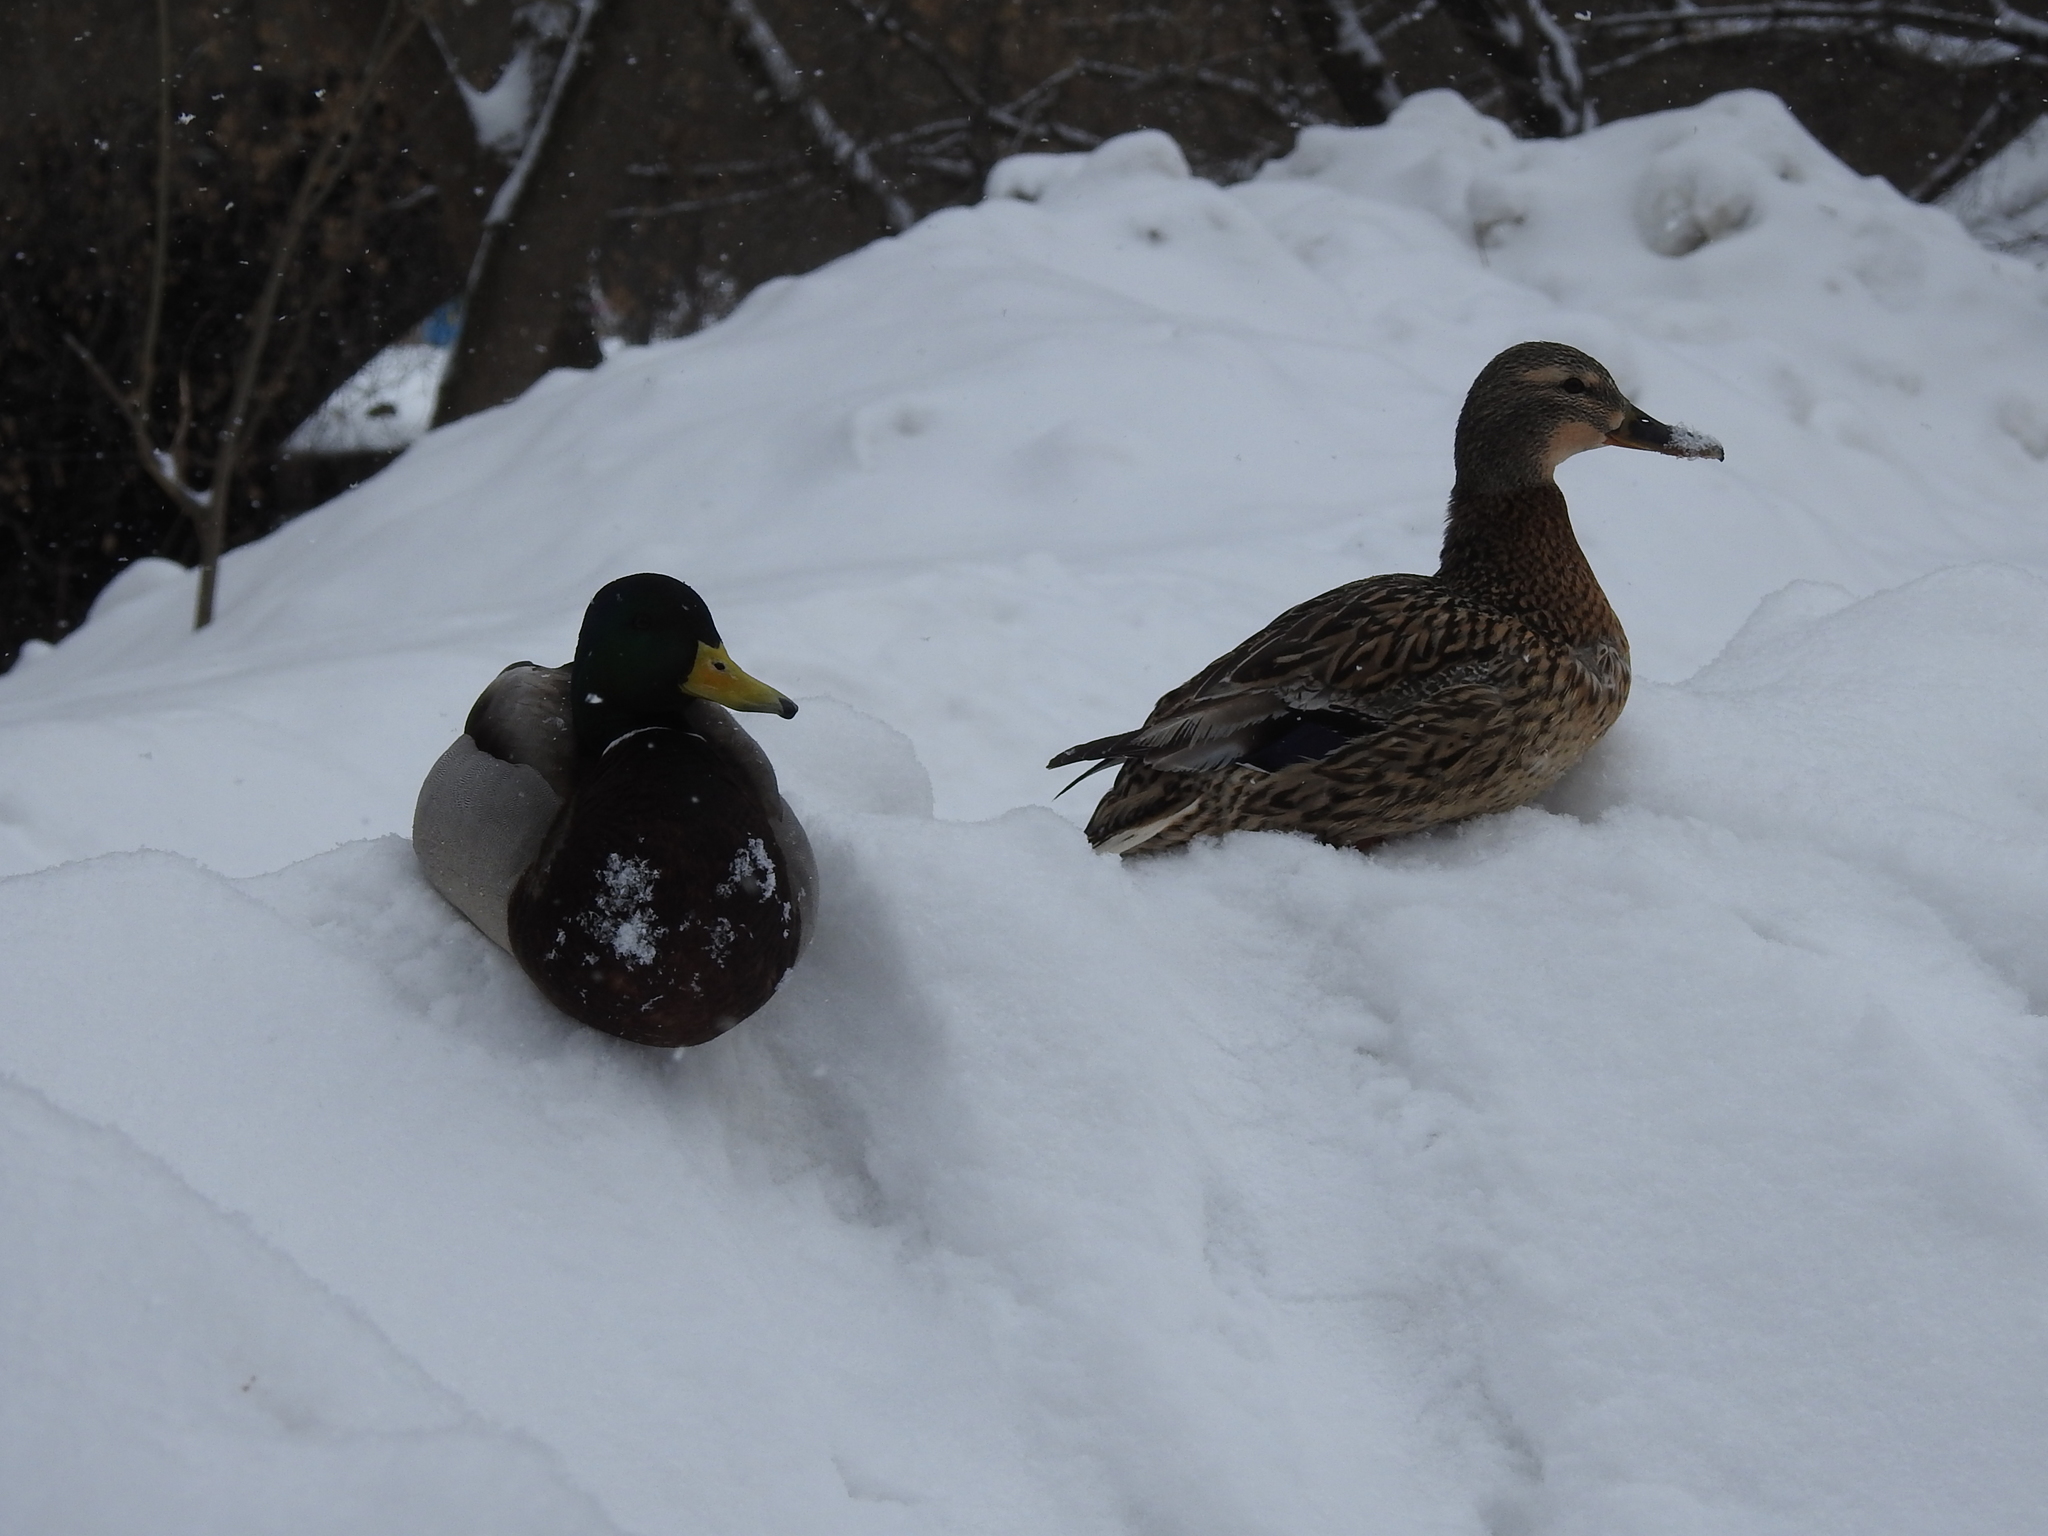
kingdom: Animalia
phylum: Chordata
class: Aves
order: Anseriformes
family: Anatidae
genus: Anas
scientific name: Anas platyrhynchos
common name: Mallard
